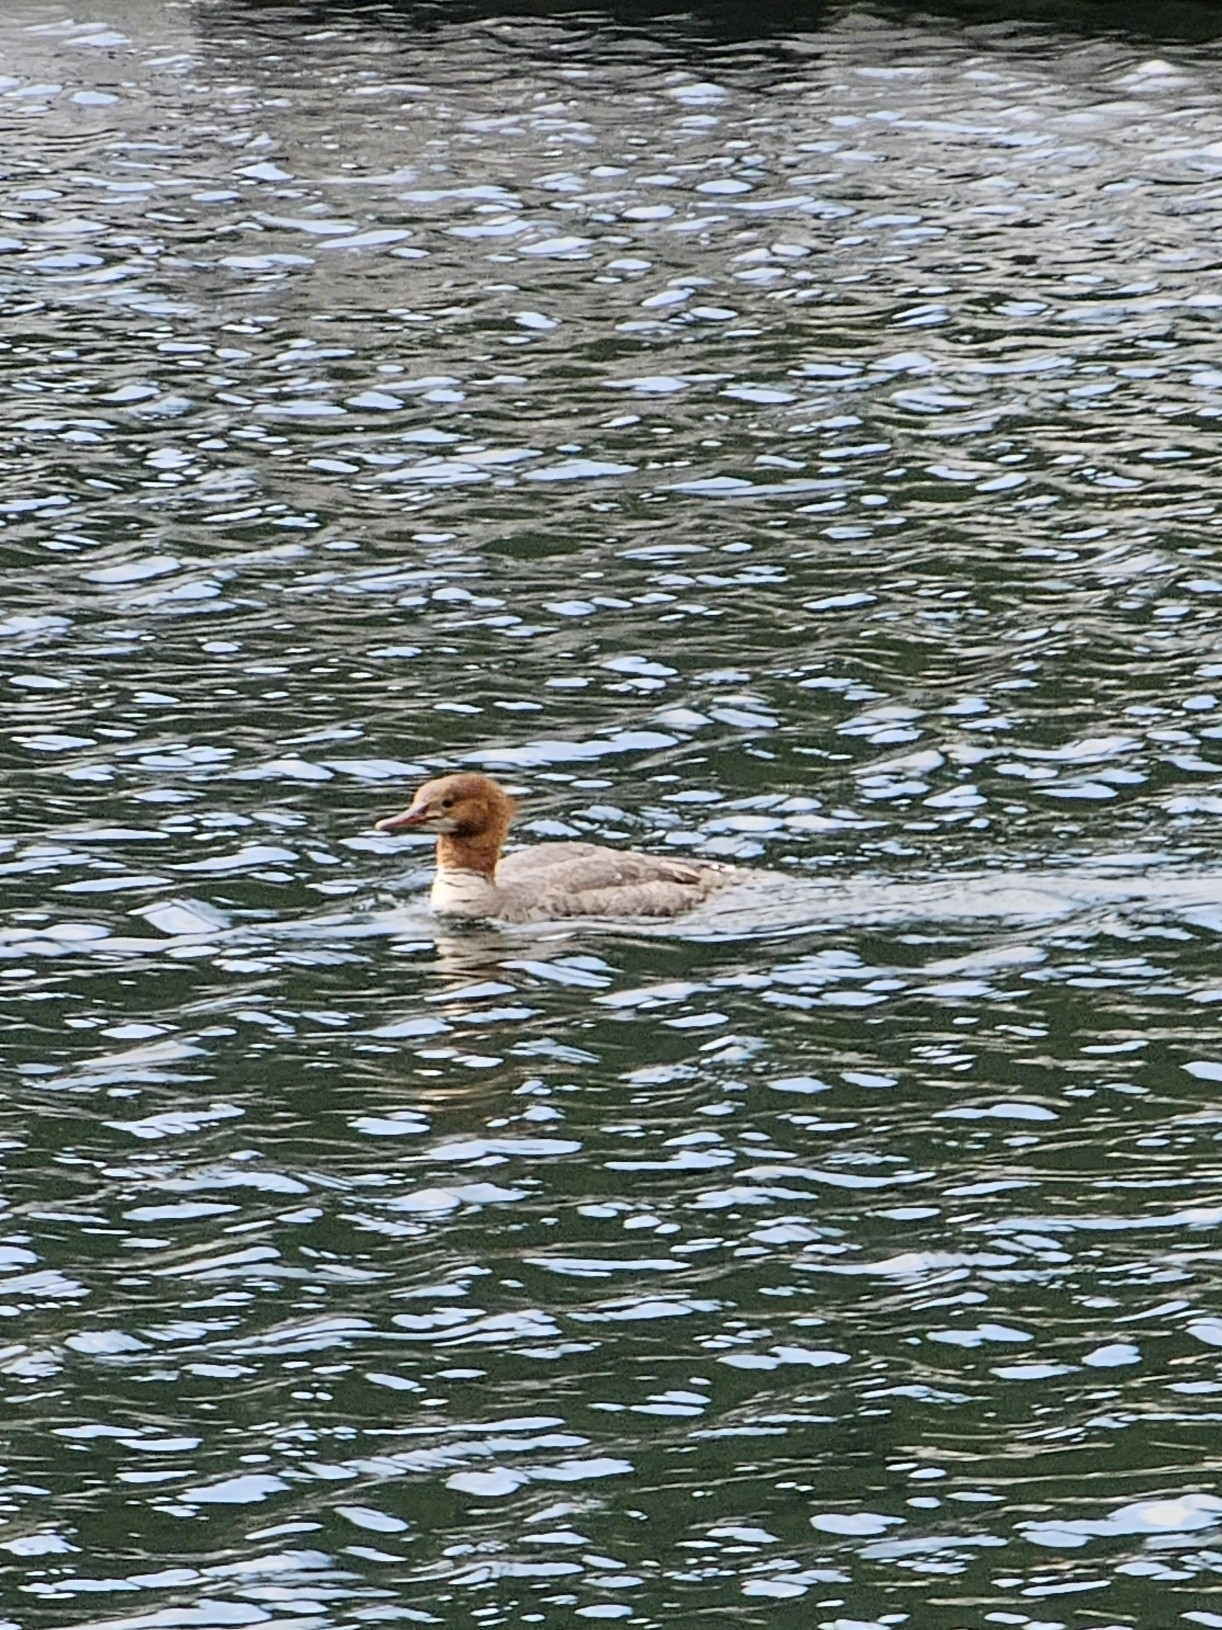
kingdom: Animalia
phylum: Chordata
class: Aves
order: Anseriformes
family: Anatidae
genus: Mergus
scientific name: Mergus merganser
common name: Common merganser
